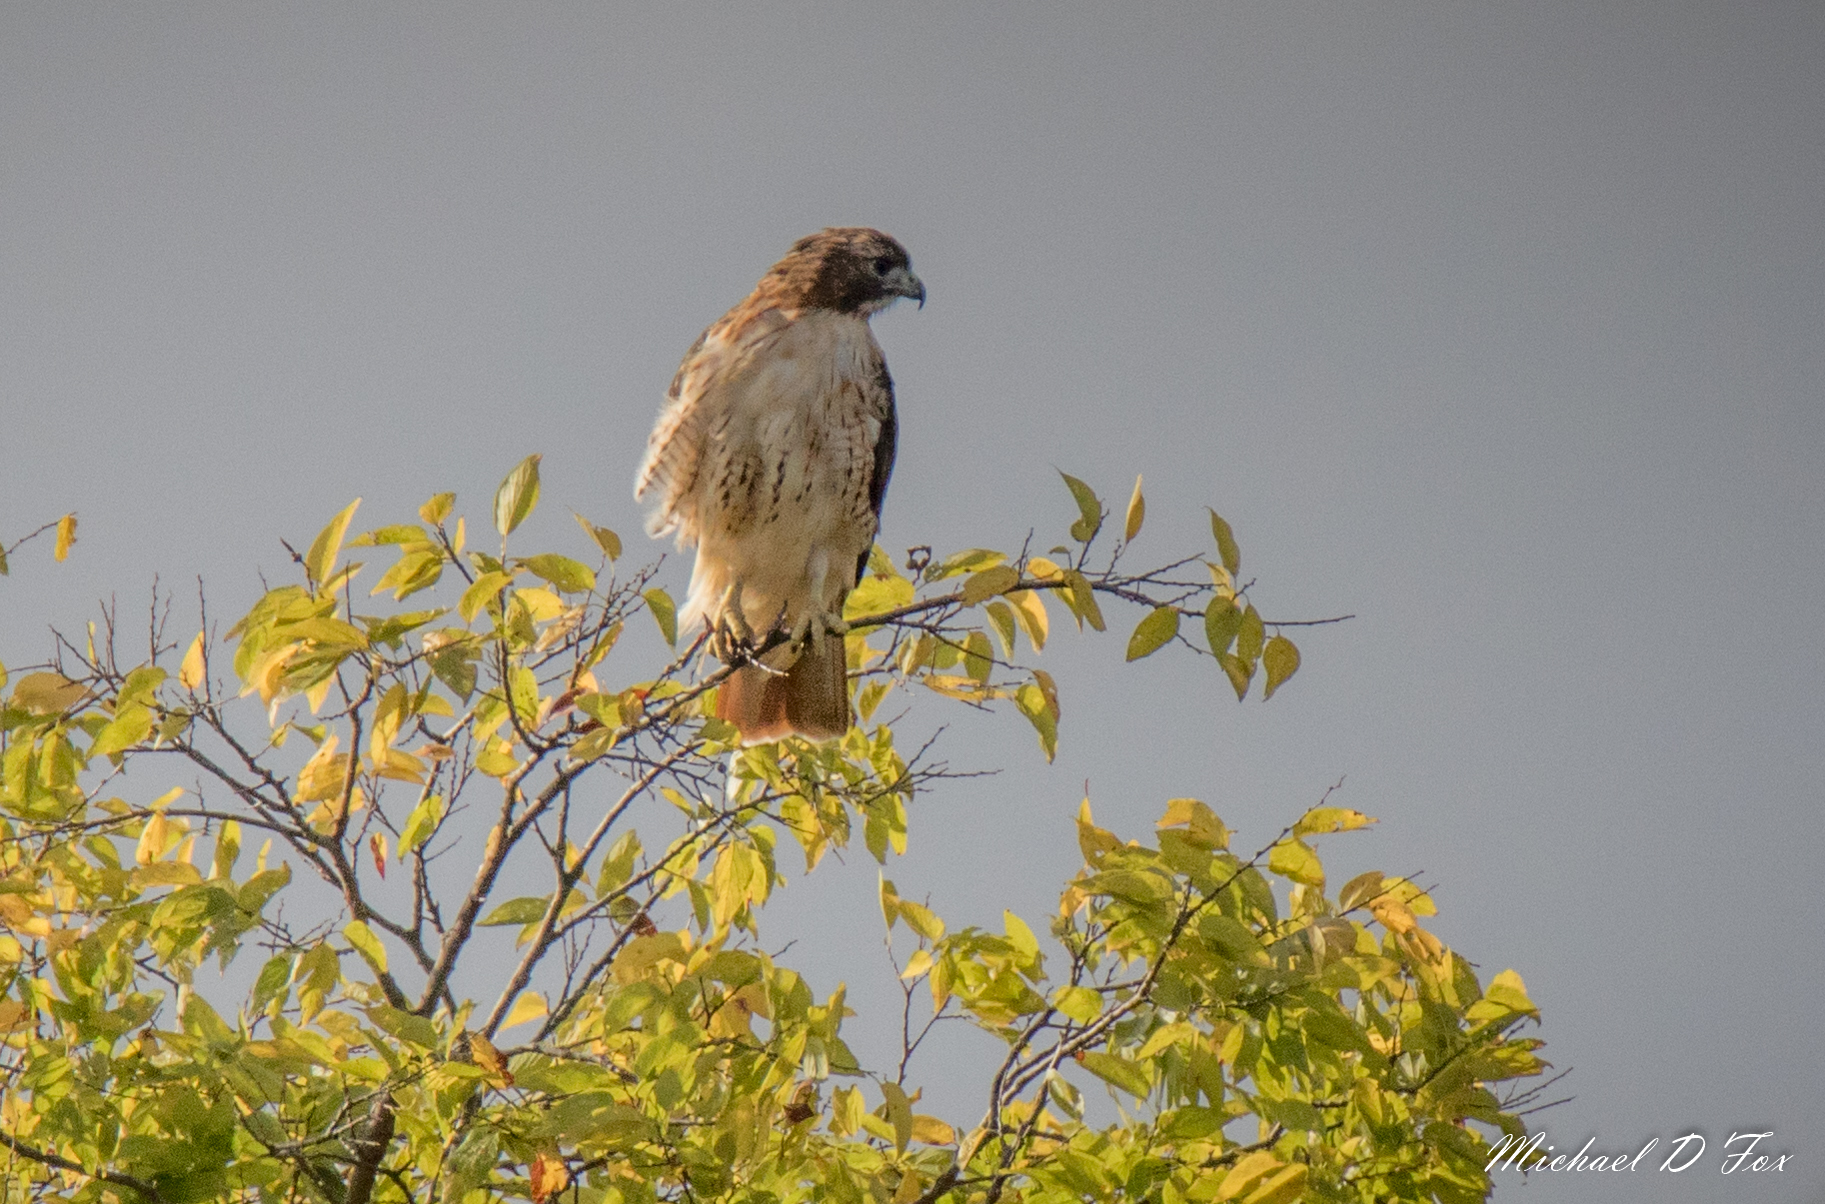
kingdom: Animalia
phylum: Chordata
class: Aves
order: Accipitriformes
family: Accipitridae
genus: Buteo
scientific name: Buteo jamaicensis
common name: Red-tailed hawk
